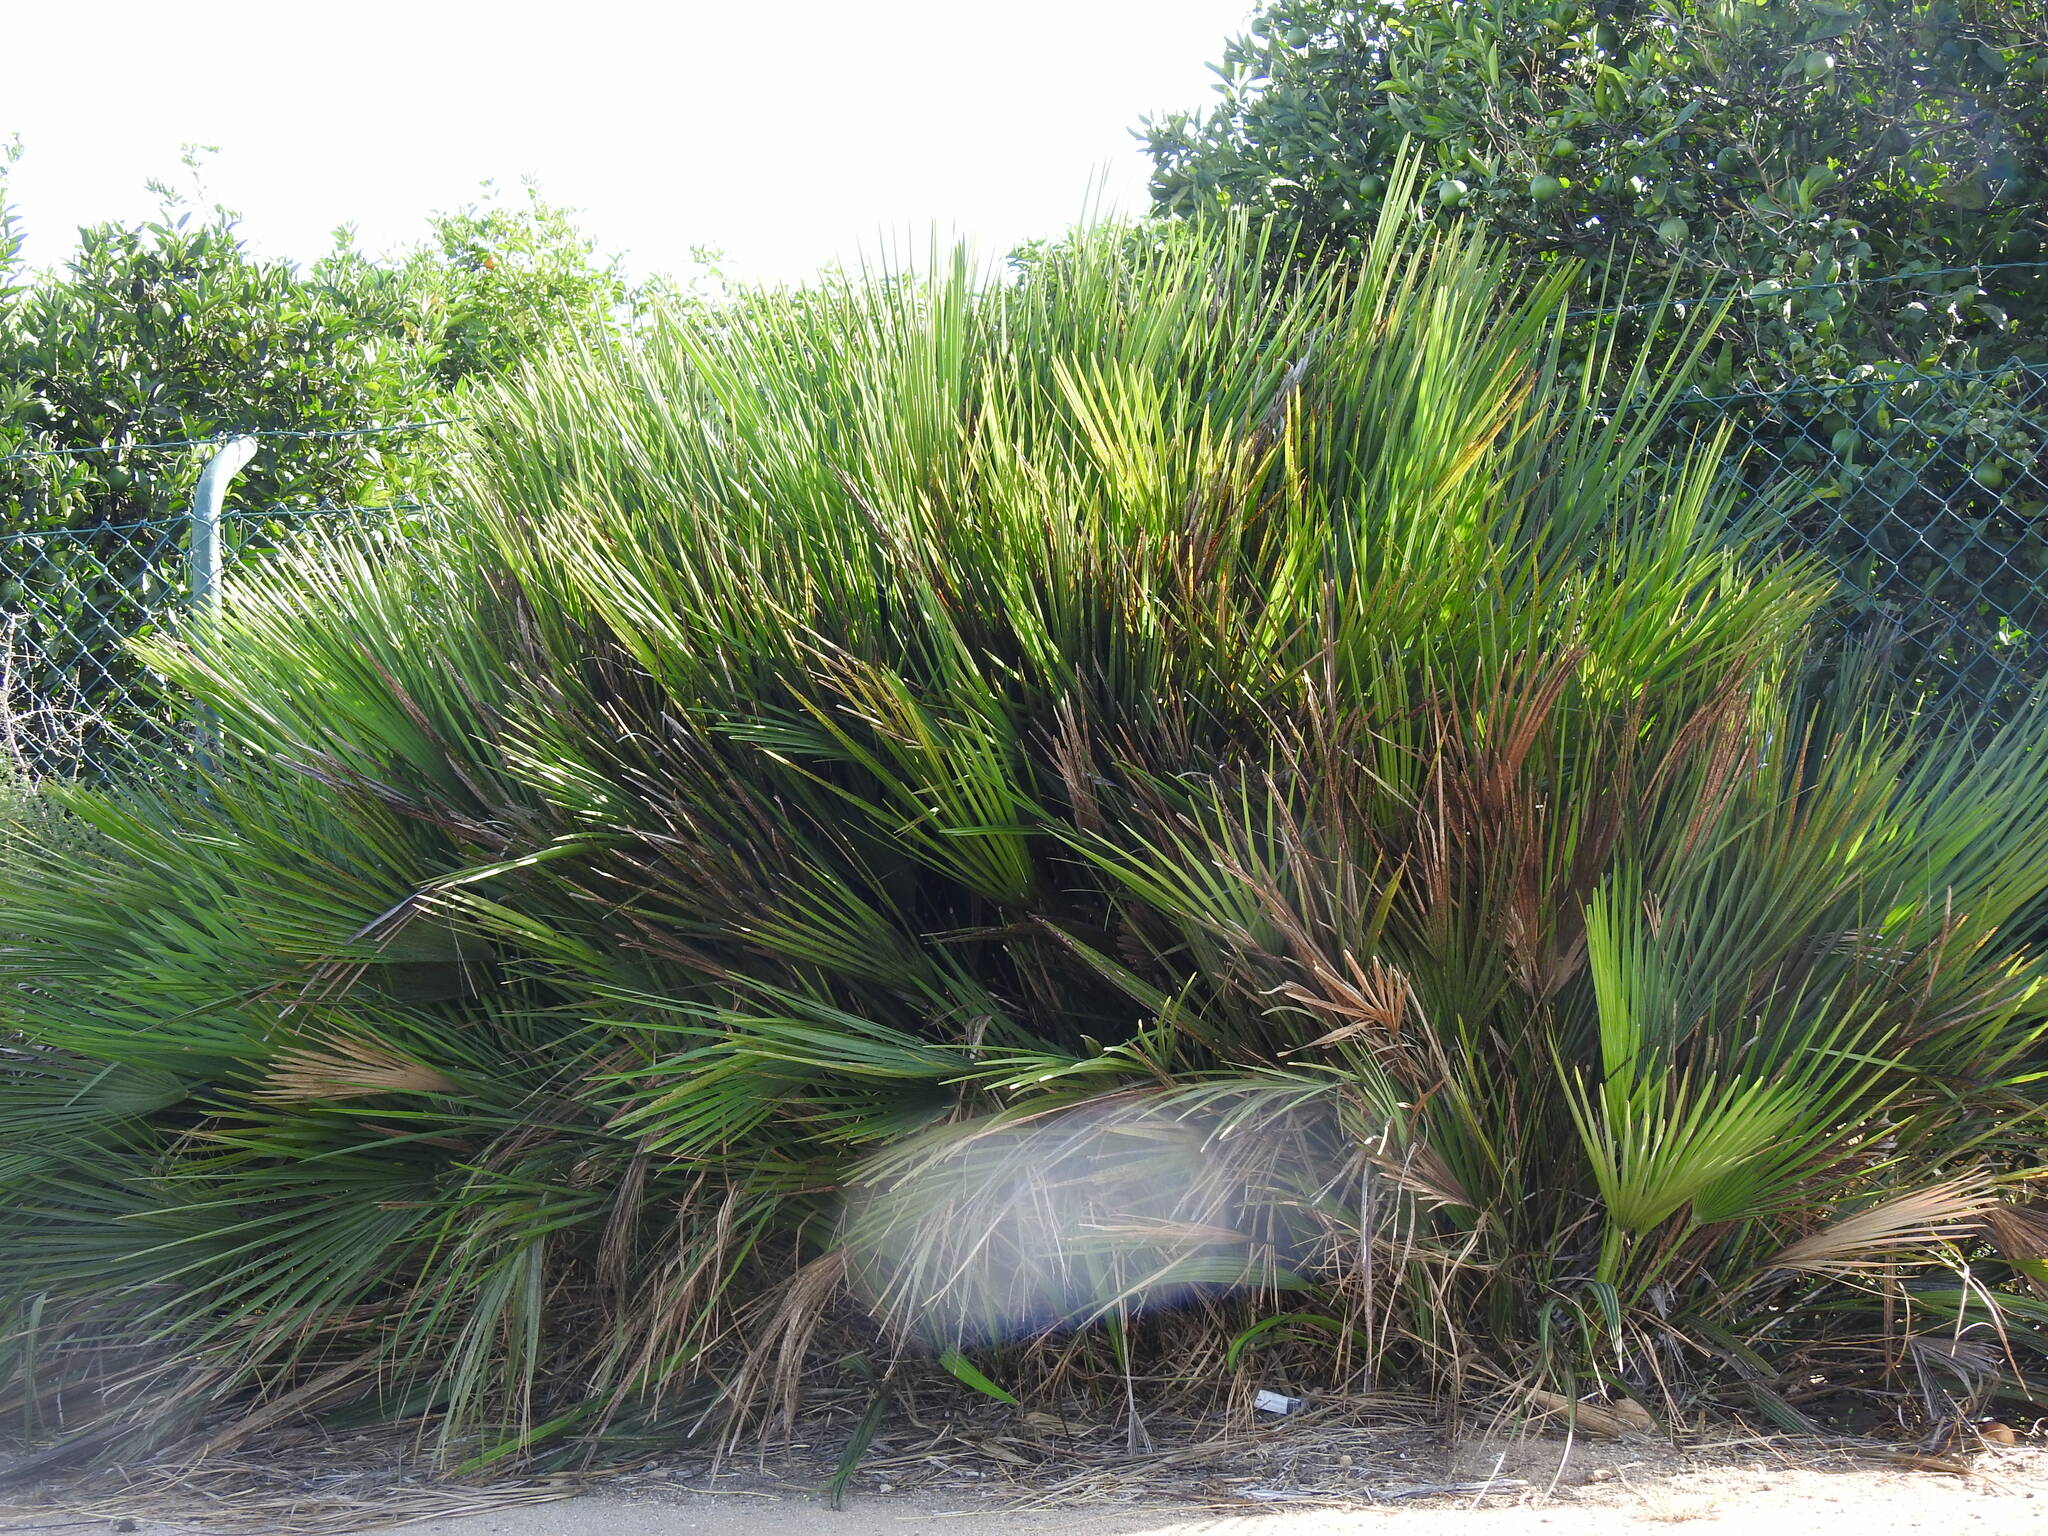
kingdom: Plantae
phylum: Tracheophyta
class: Liliopsida
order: Arecales
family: Arecaceae
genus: Chamaerops
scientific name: Chamaerops humilis
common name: Dwarf fan palm
